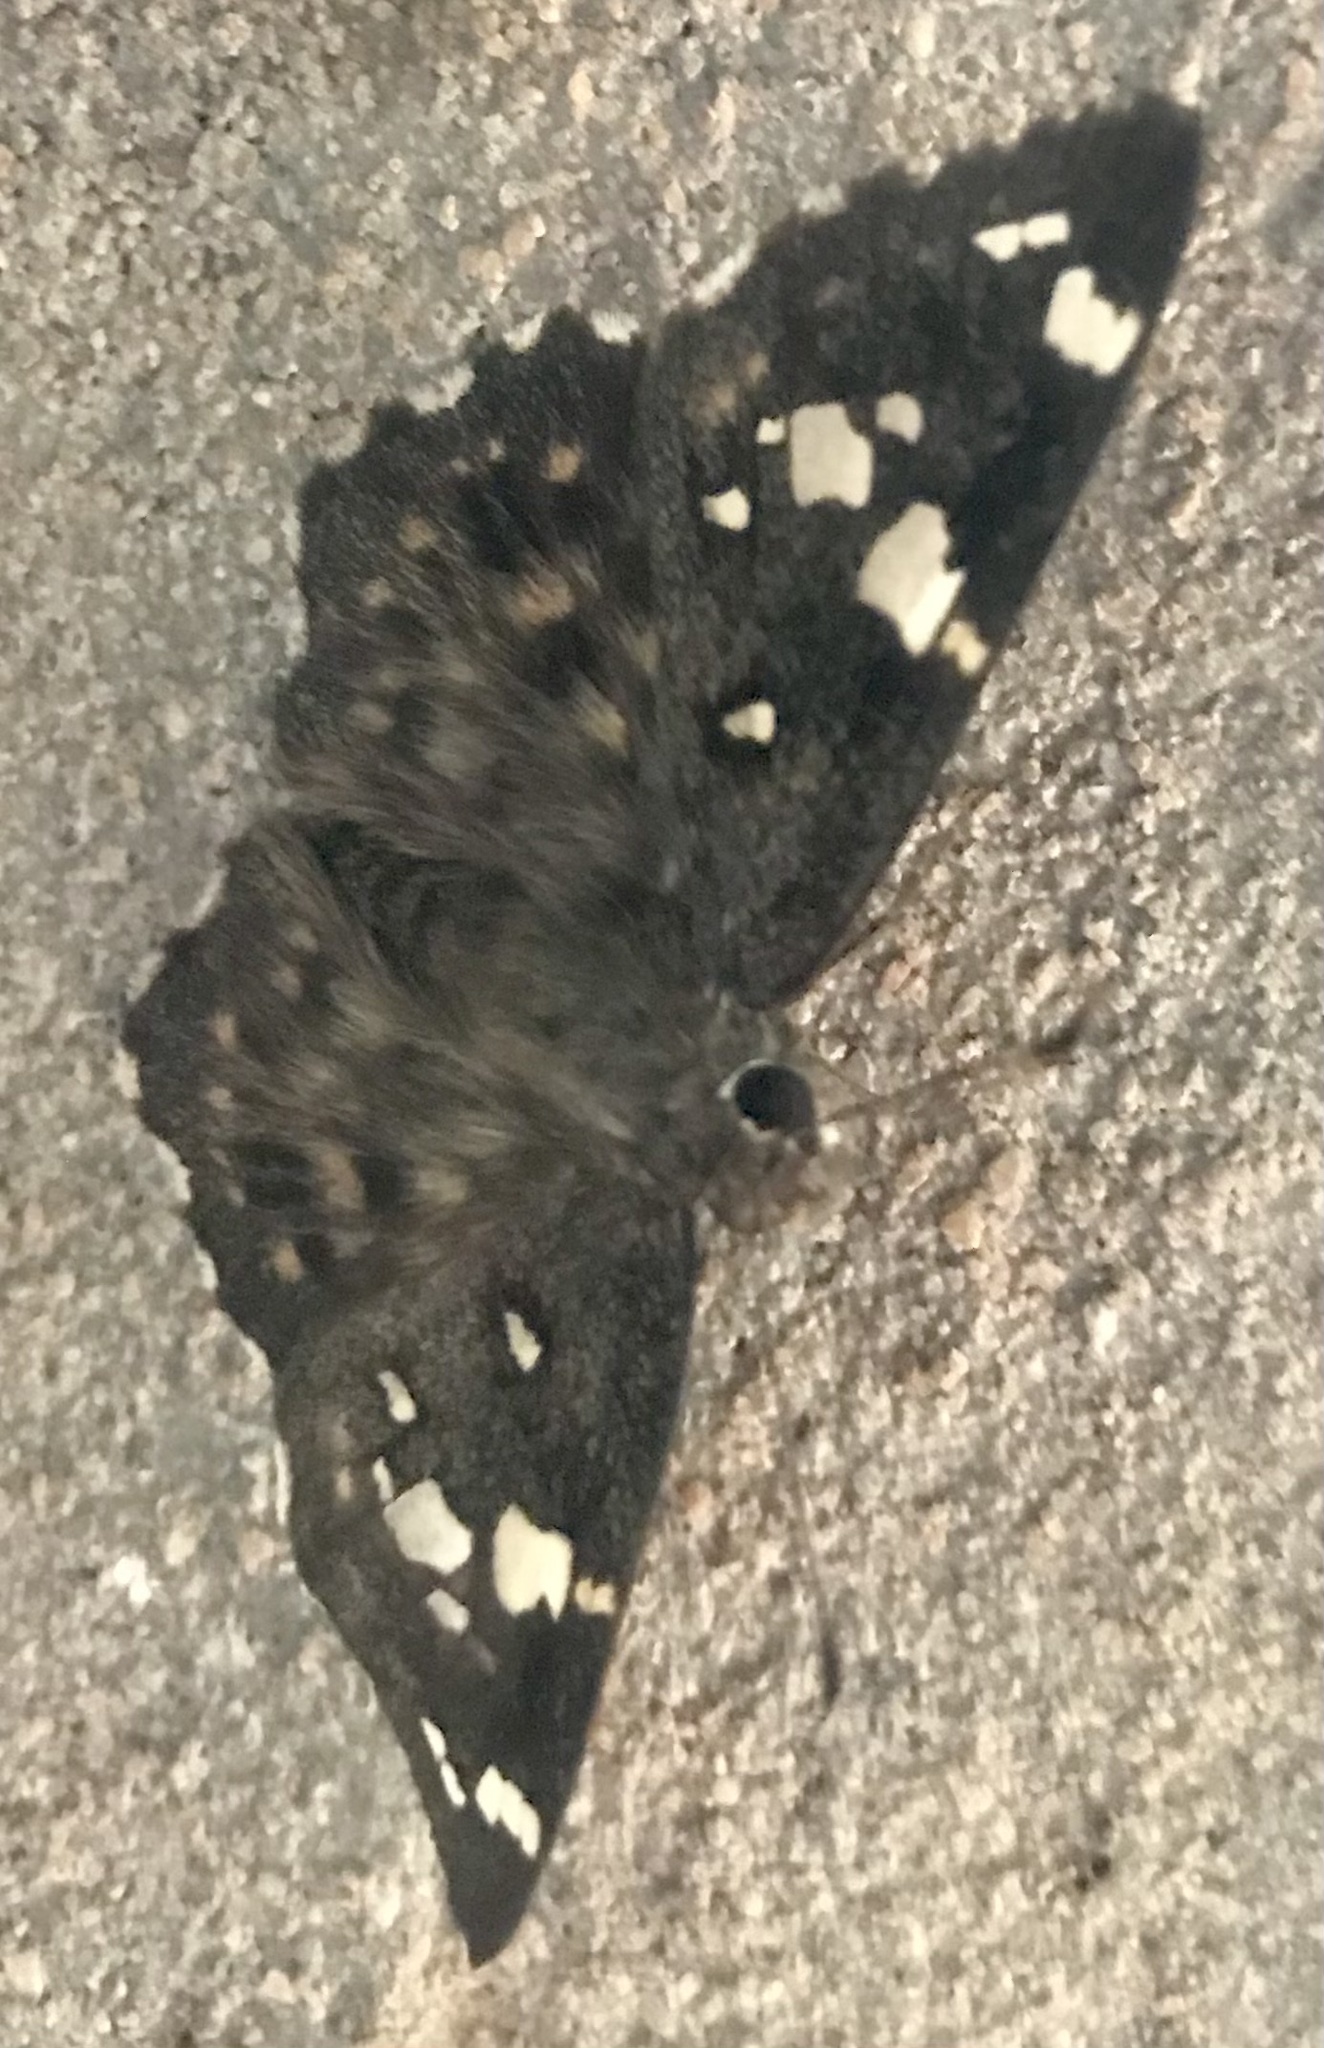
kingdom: Animalia
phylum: Arthropoda
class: Insecta
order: Lepidoptera
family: Hesperiidae
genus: Celaenorrhinus
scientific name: Celaenorrhinus ambareesa
